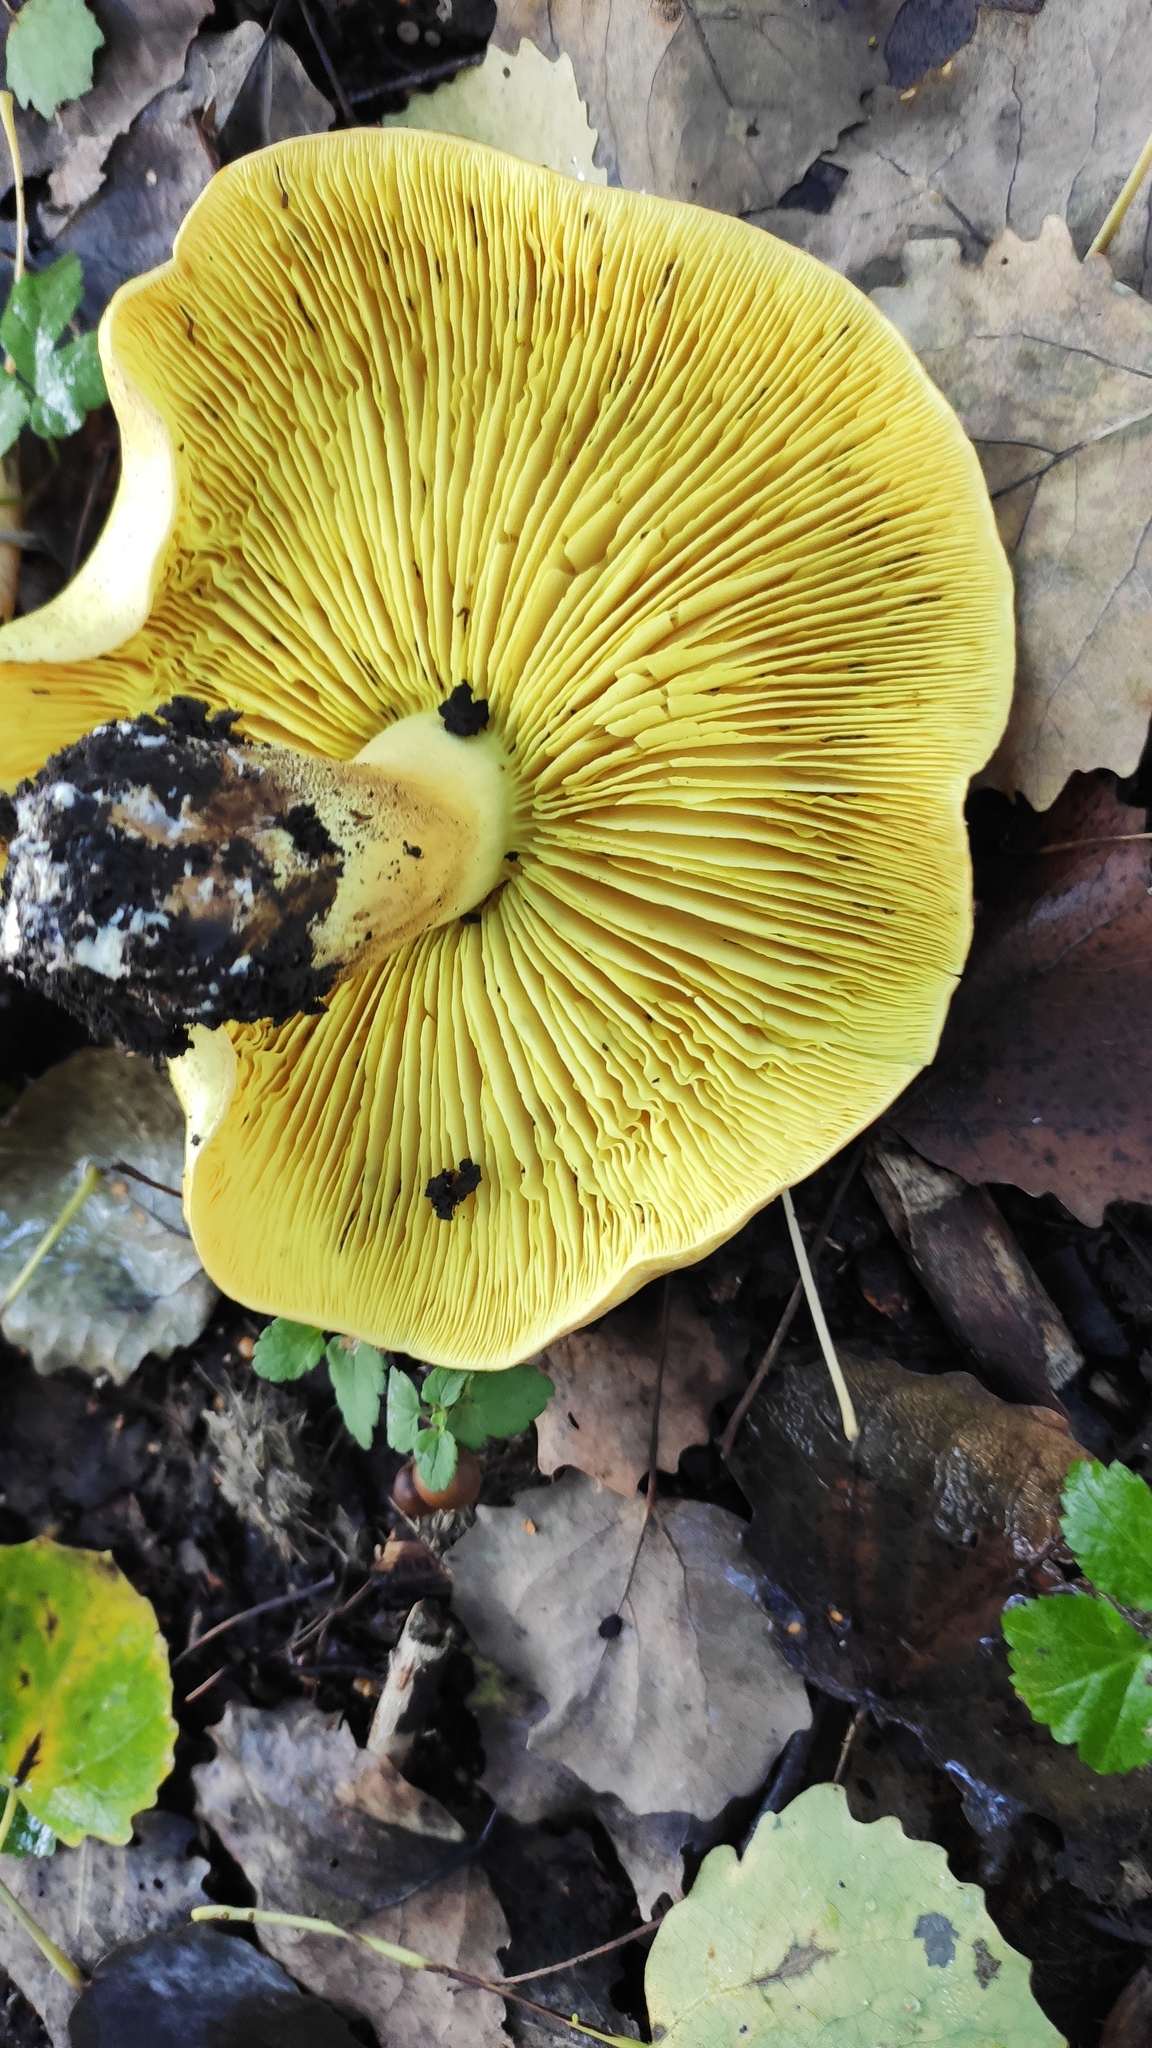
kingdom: Fungi
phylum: Basidiomycota
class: Agaricomycetes
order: Agaricales
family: Tricholomataceae
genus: Tricholoma
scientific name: Tricholoma equestre
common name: Yellow knight
